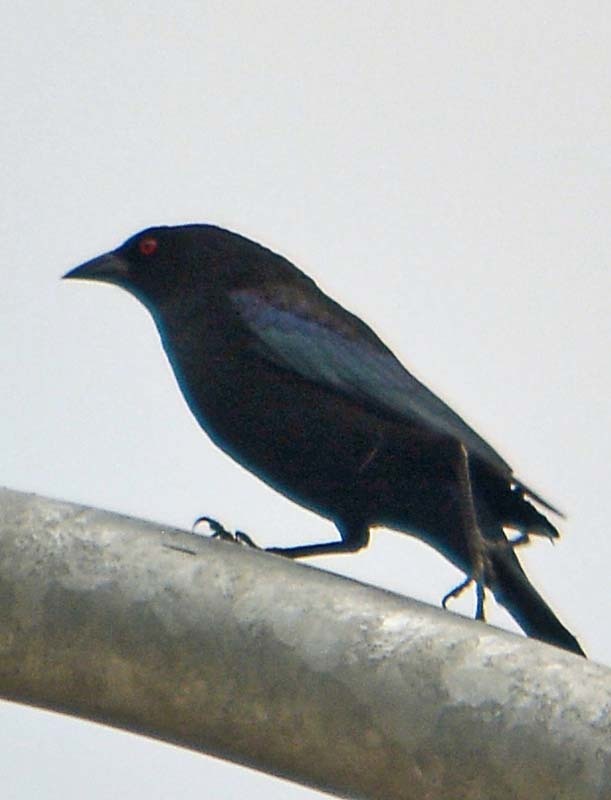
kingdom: Animalia
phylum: Chordata
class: Aves
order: Passeriformes
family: Icteridae
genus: Molothrus
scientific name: Molothrus aeneus
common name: Bronzed cowbird
